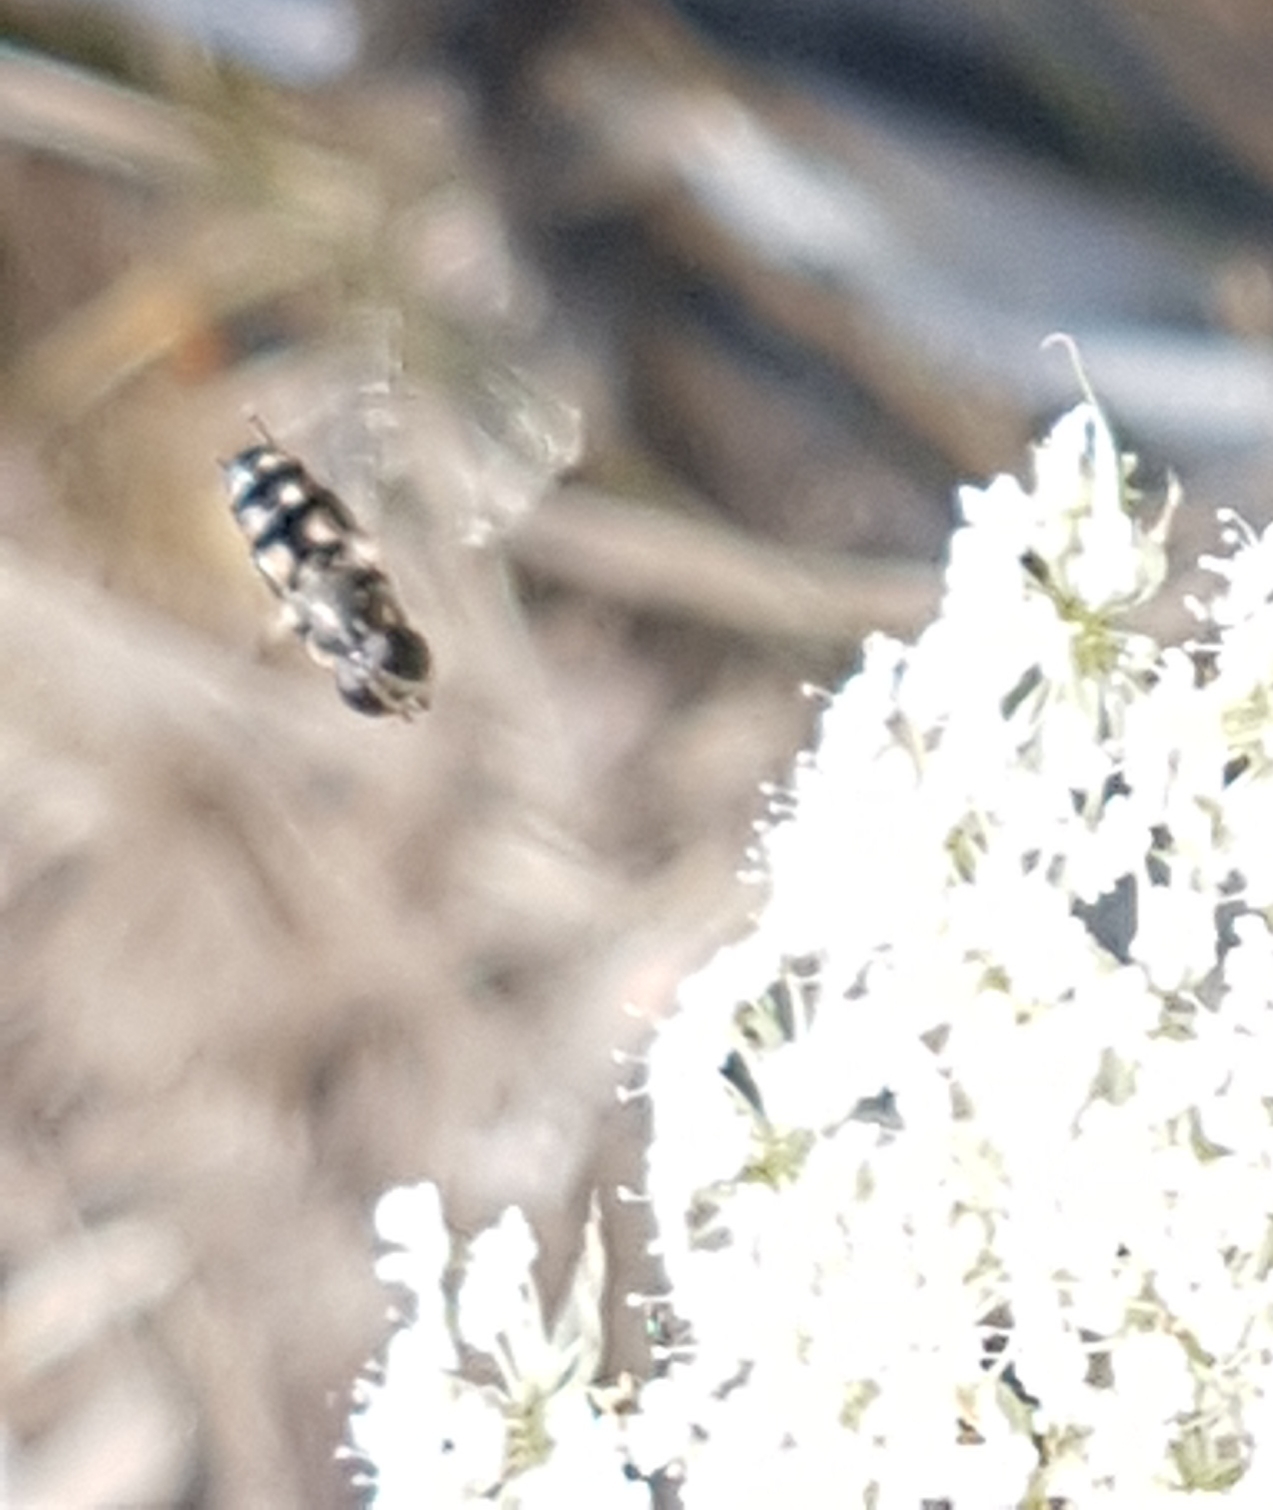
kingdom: Animalia
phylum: Arthropoda
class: Insecta
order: Diptera
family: Syrphidae
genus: Syritta
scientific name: Syritta pipiens
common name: Hover fly
